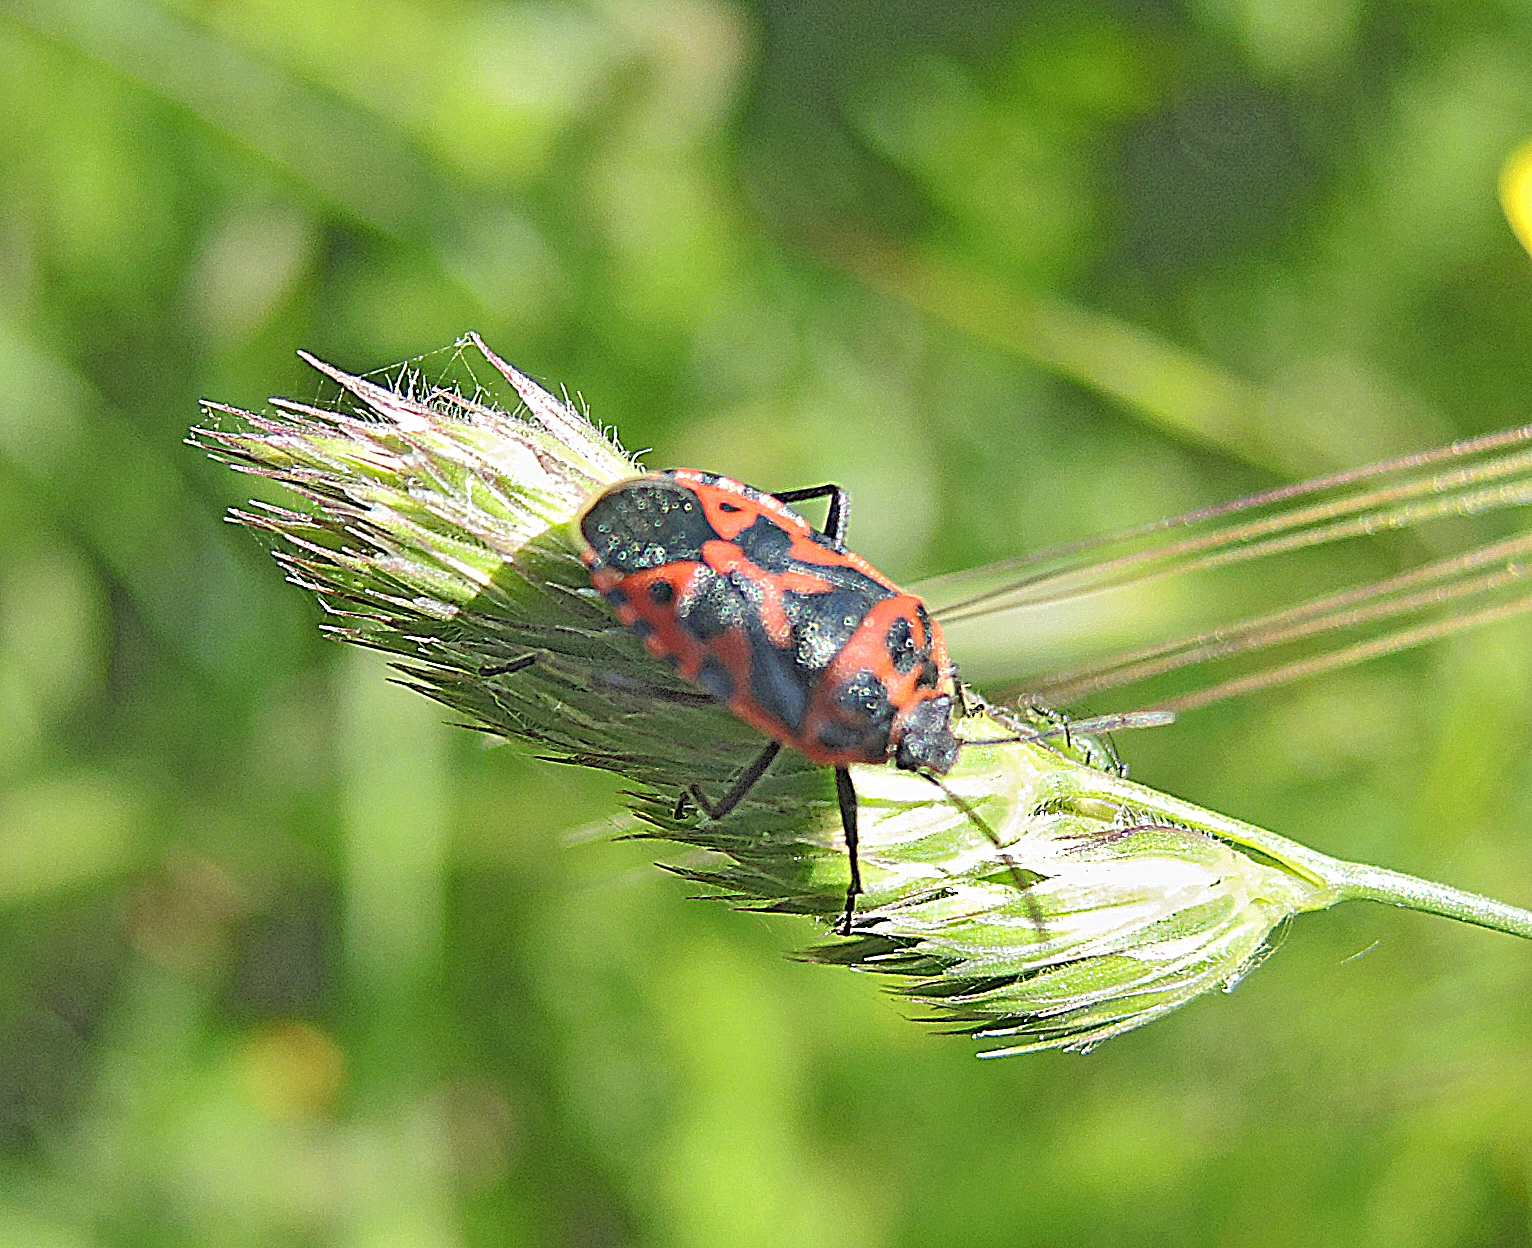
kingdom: Animalia
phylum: Arthropoda
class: Insecta
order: Hemiptera
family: Pentatomidae
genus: Eurydema
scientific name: Eurydema ventralis
